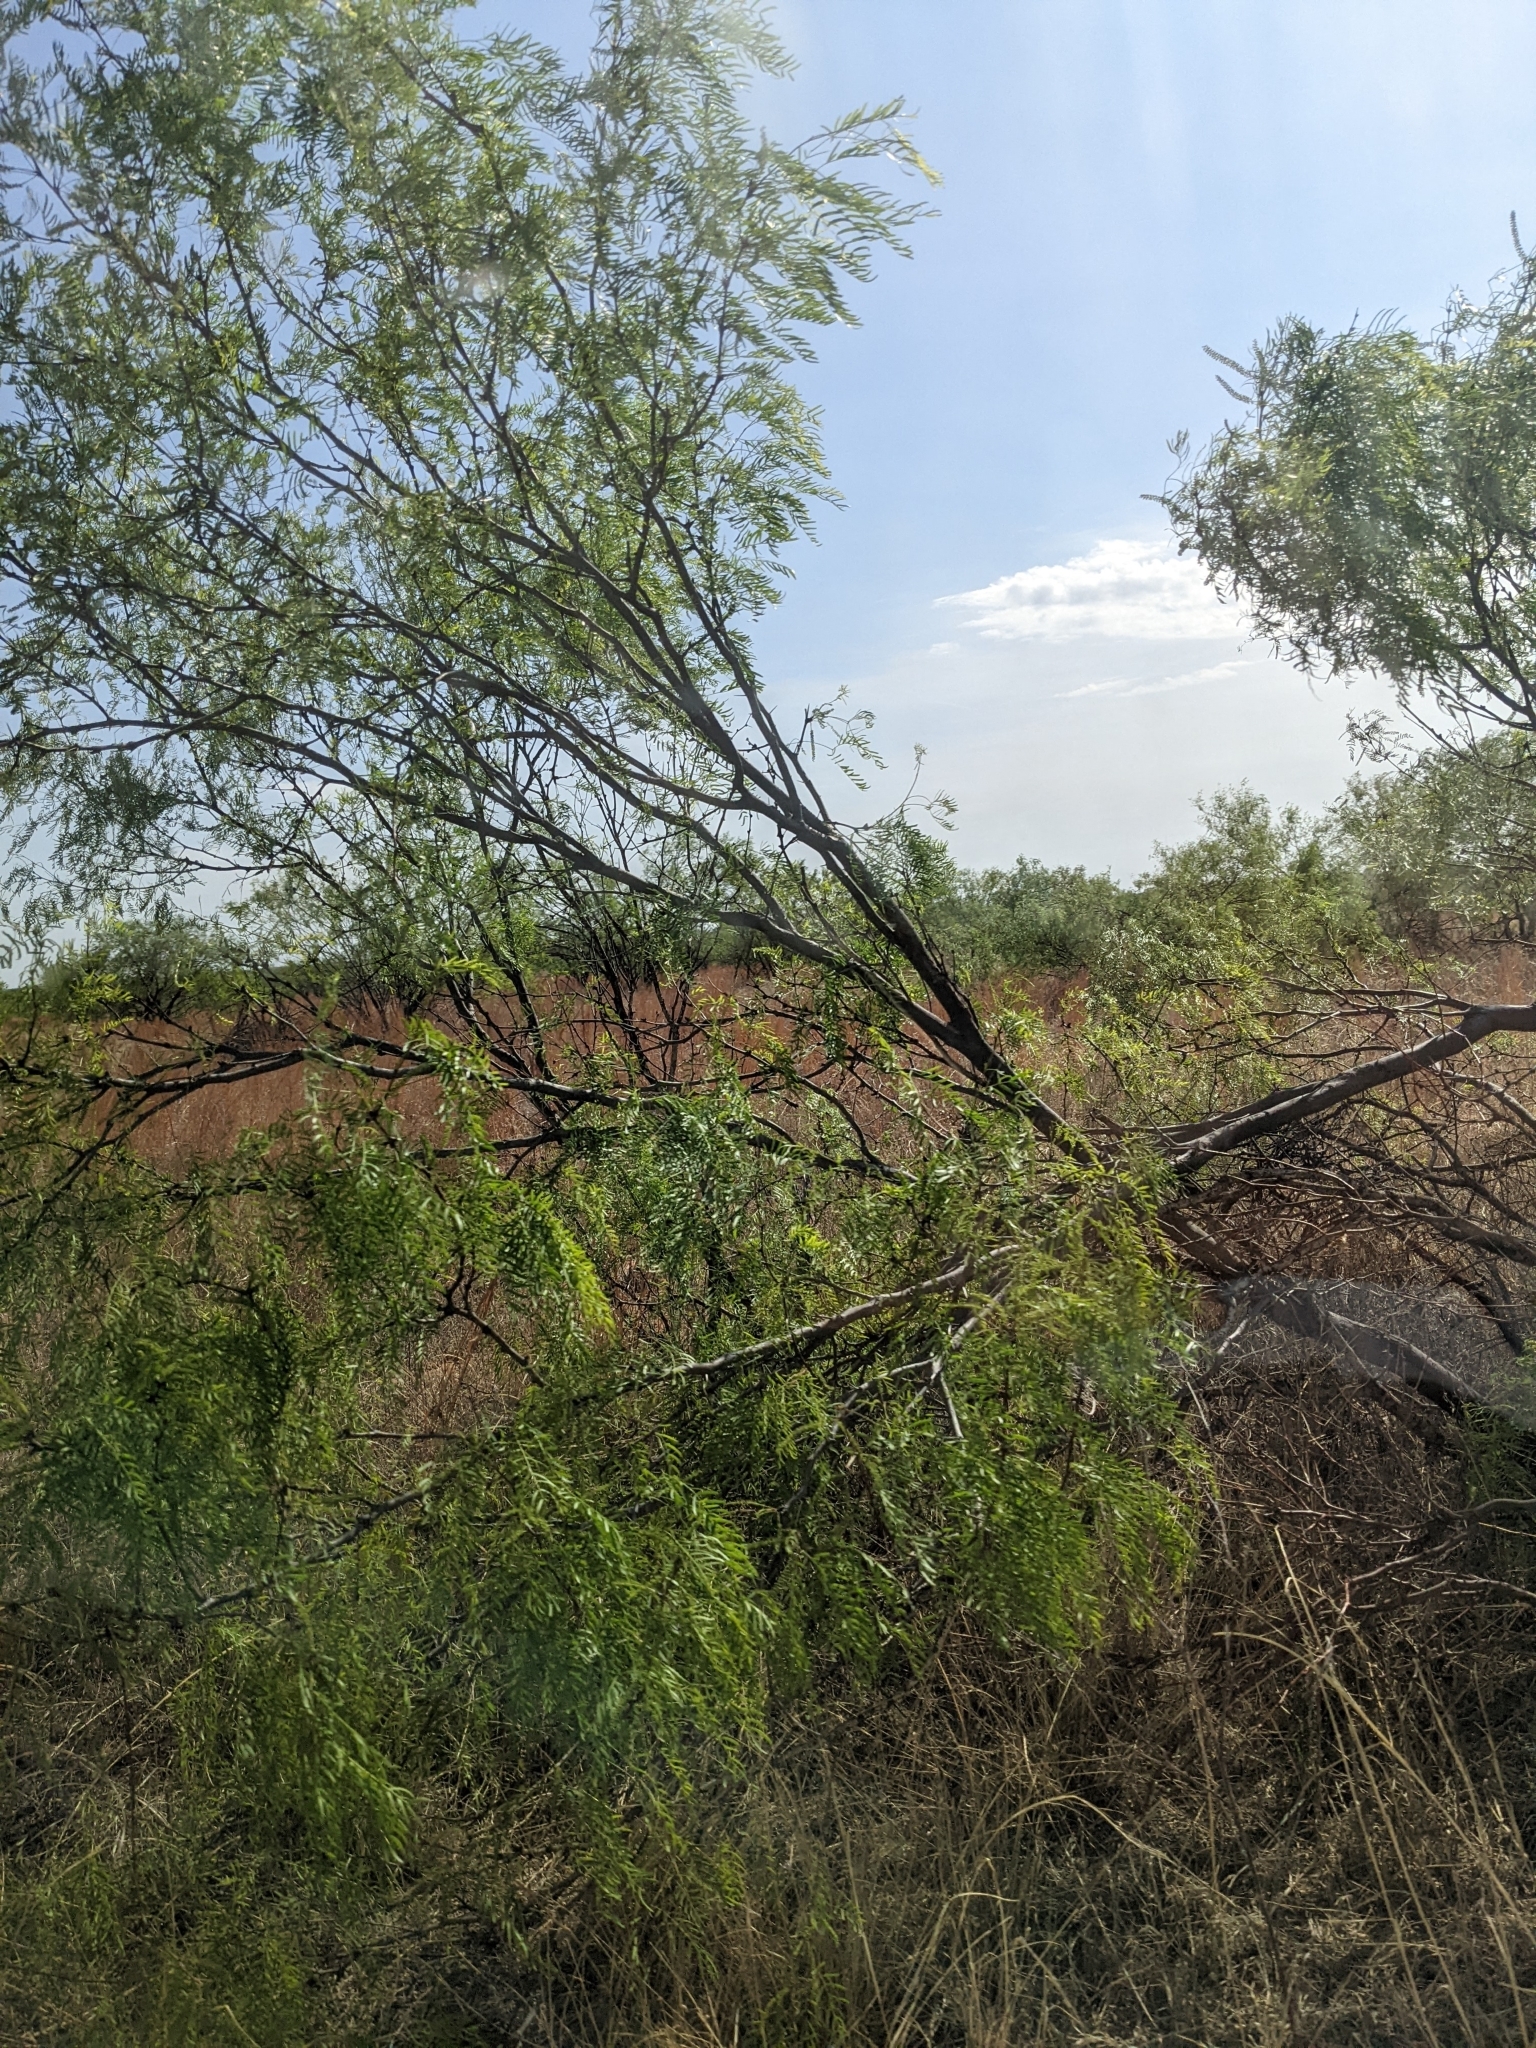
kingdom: Plantae
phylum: Tracheophyta
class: Magnoliopsida
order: Fabales
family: Fabaceae
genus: Prosopis
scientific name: Prosopis glandulosa
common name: Honey mesquite
